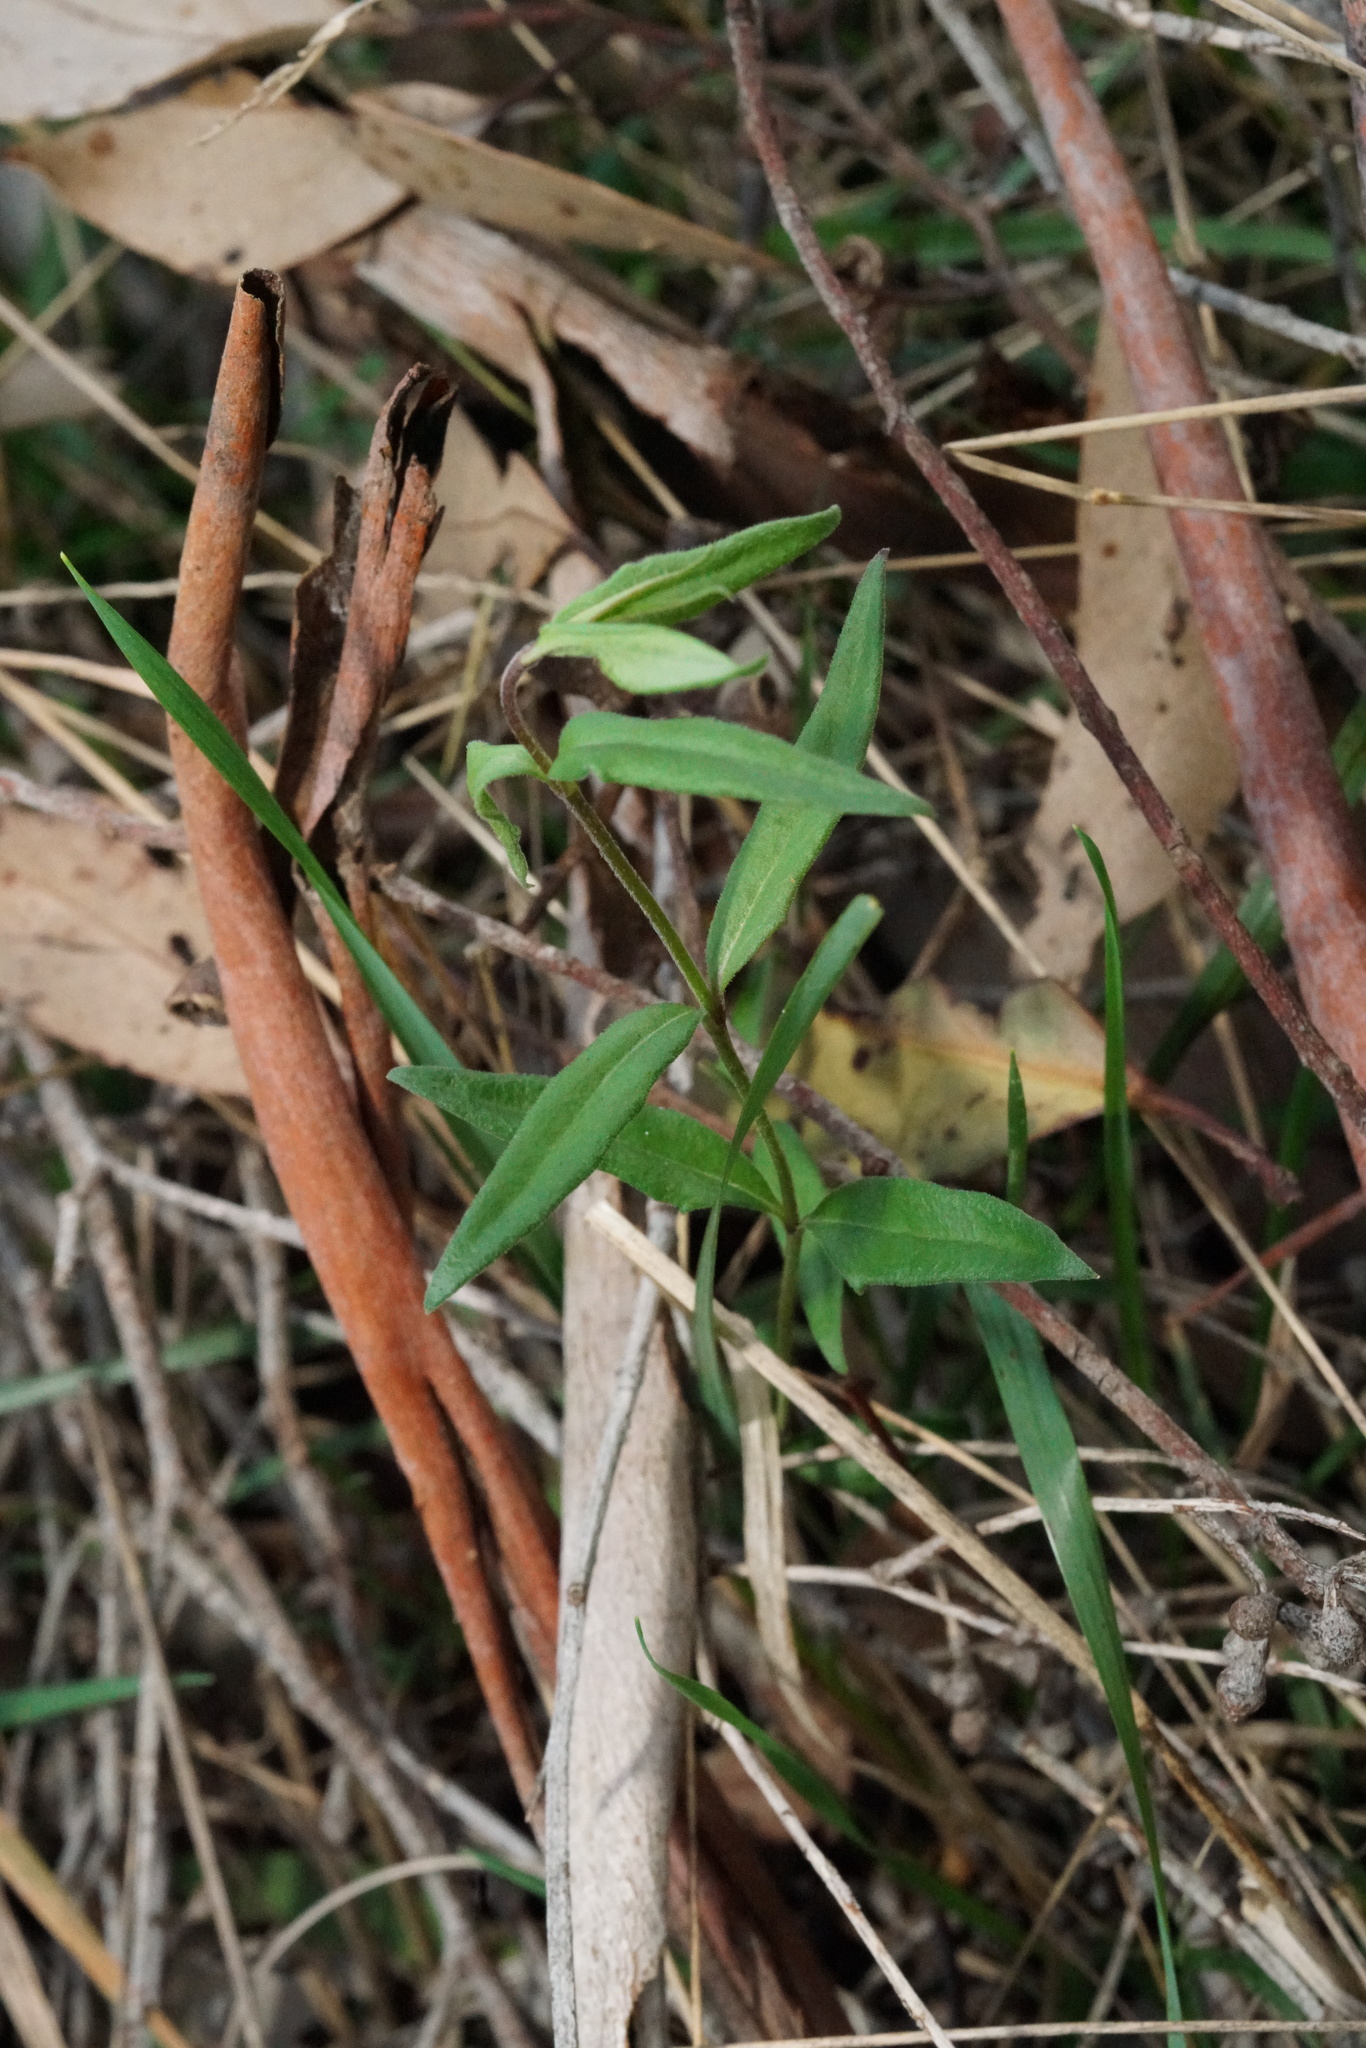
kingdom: Plantae
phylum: Tracheophyta
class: Magnoliopsida
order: Lamiales
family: Plantaginaceae
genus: Veronica
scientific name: Veronica gracilis
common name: Slender speedwell
